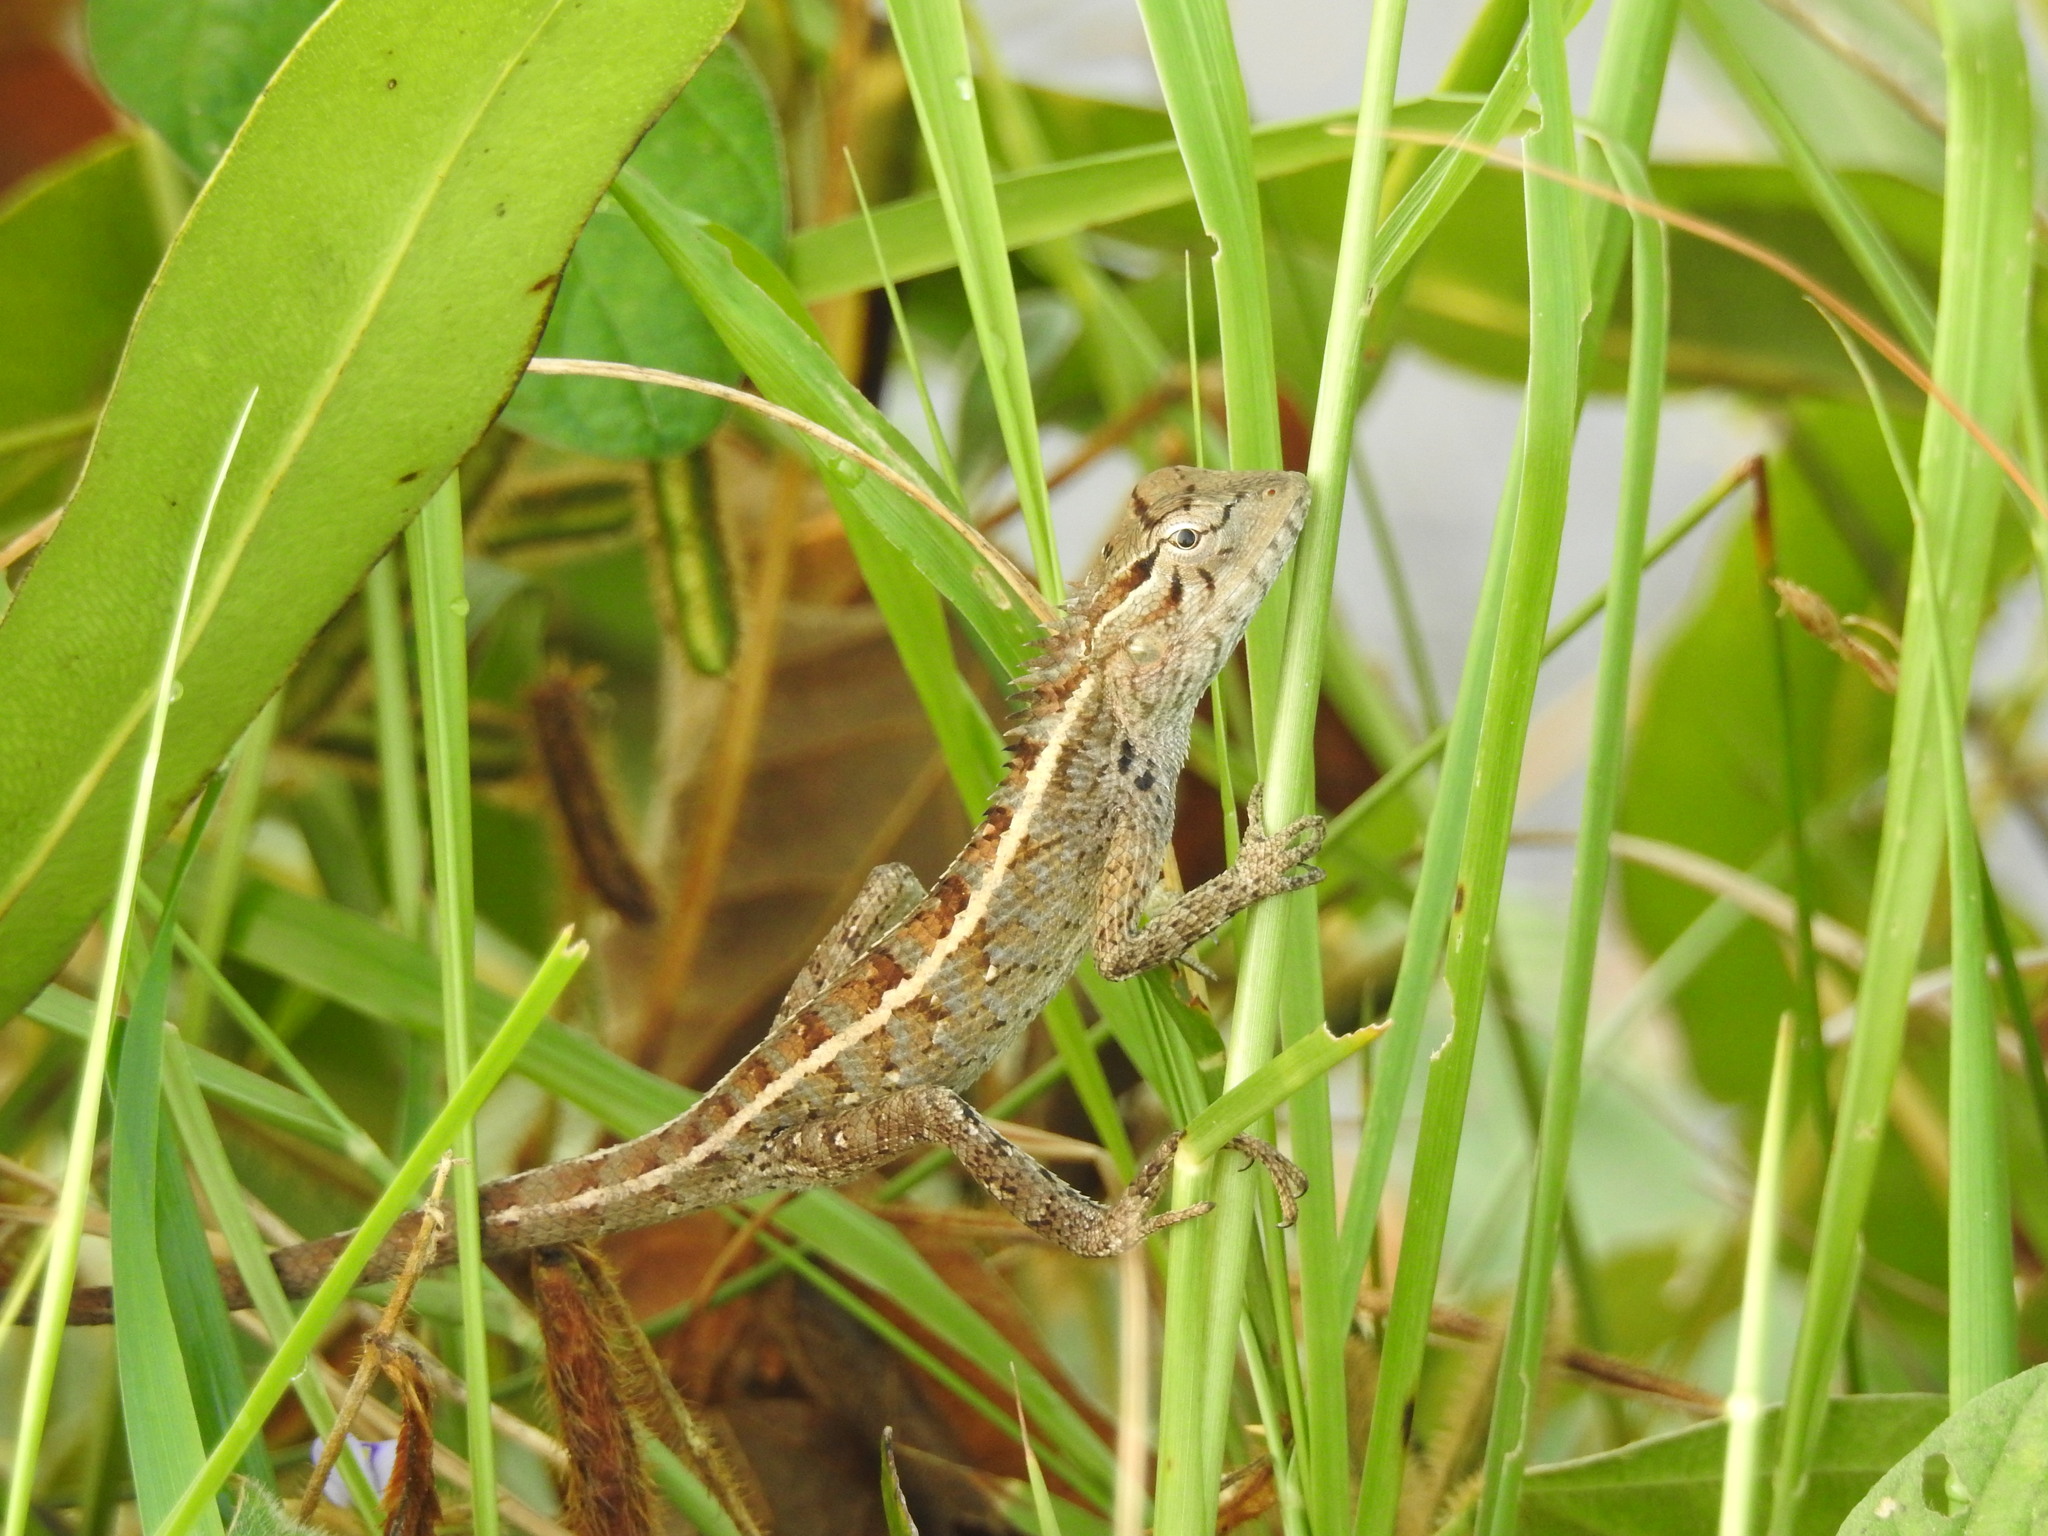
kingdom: Animalia
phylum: Chordata
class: Squamata
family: Agamidae
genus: Calotes
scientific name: Calotes versicolor
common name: Oriental garden lizard
